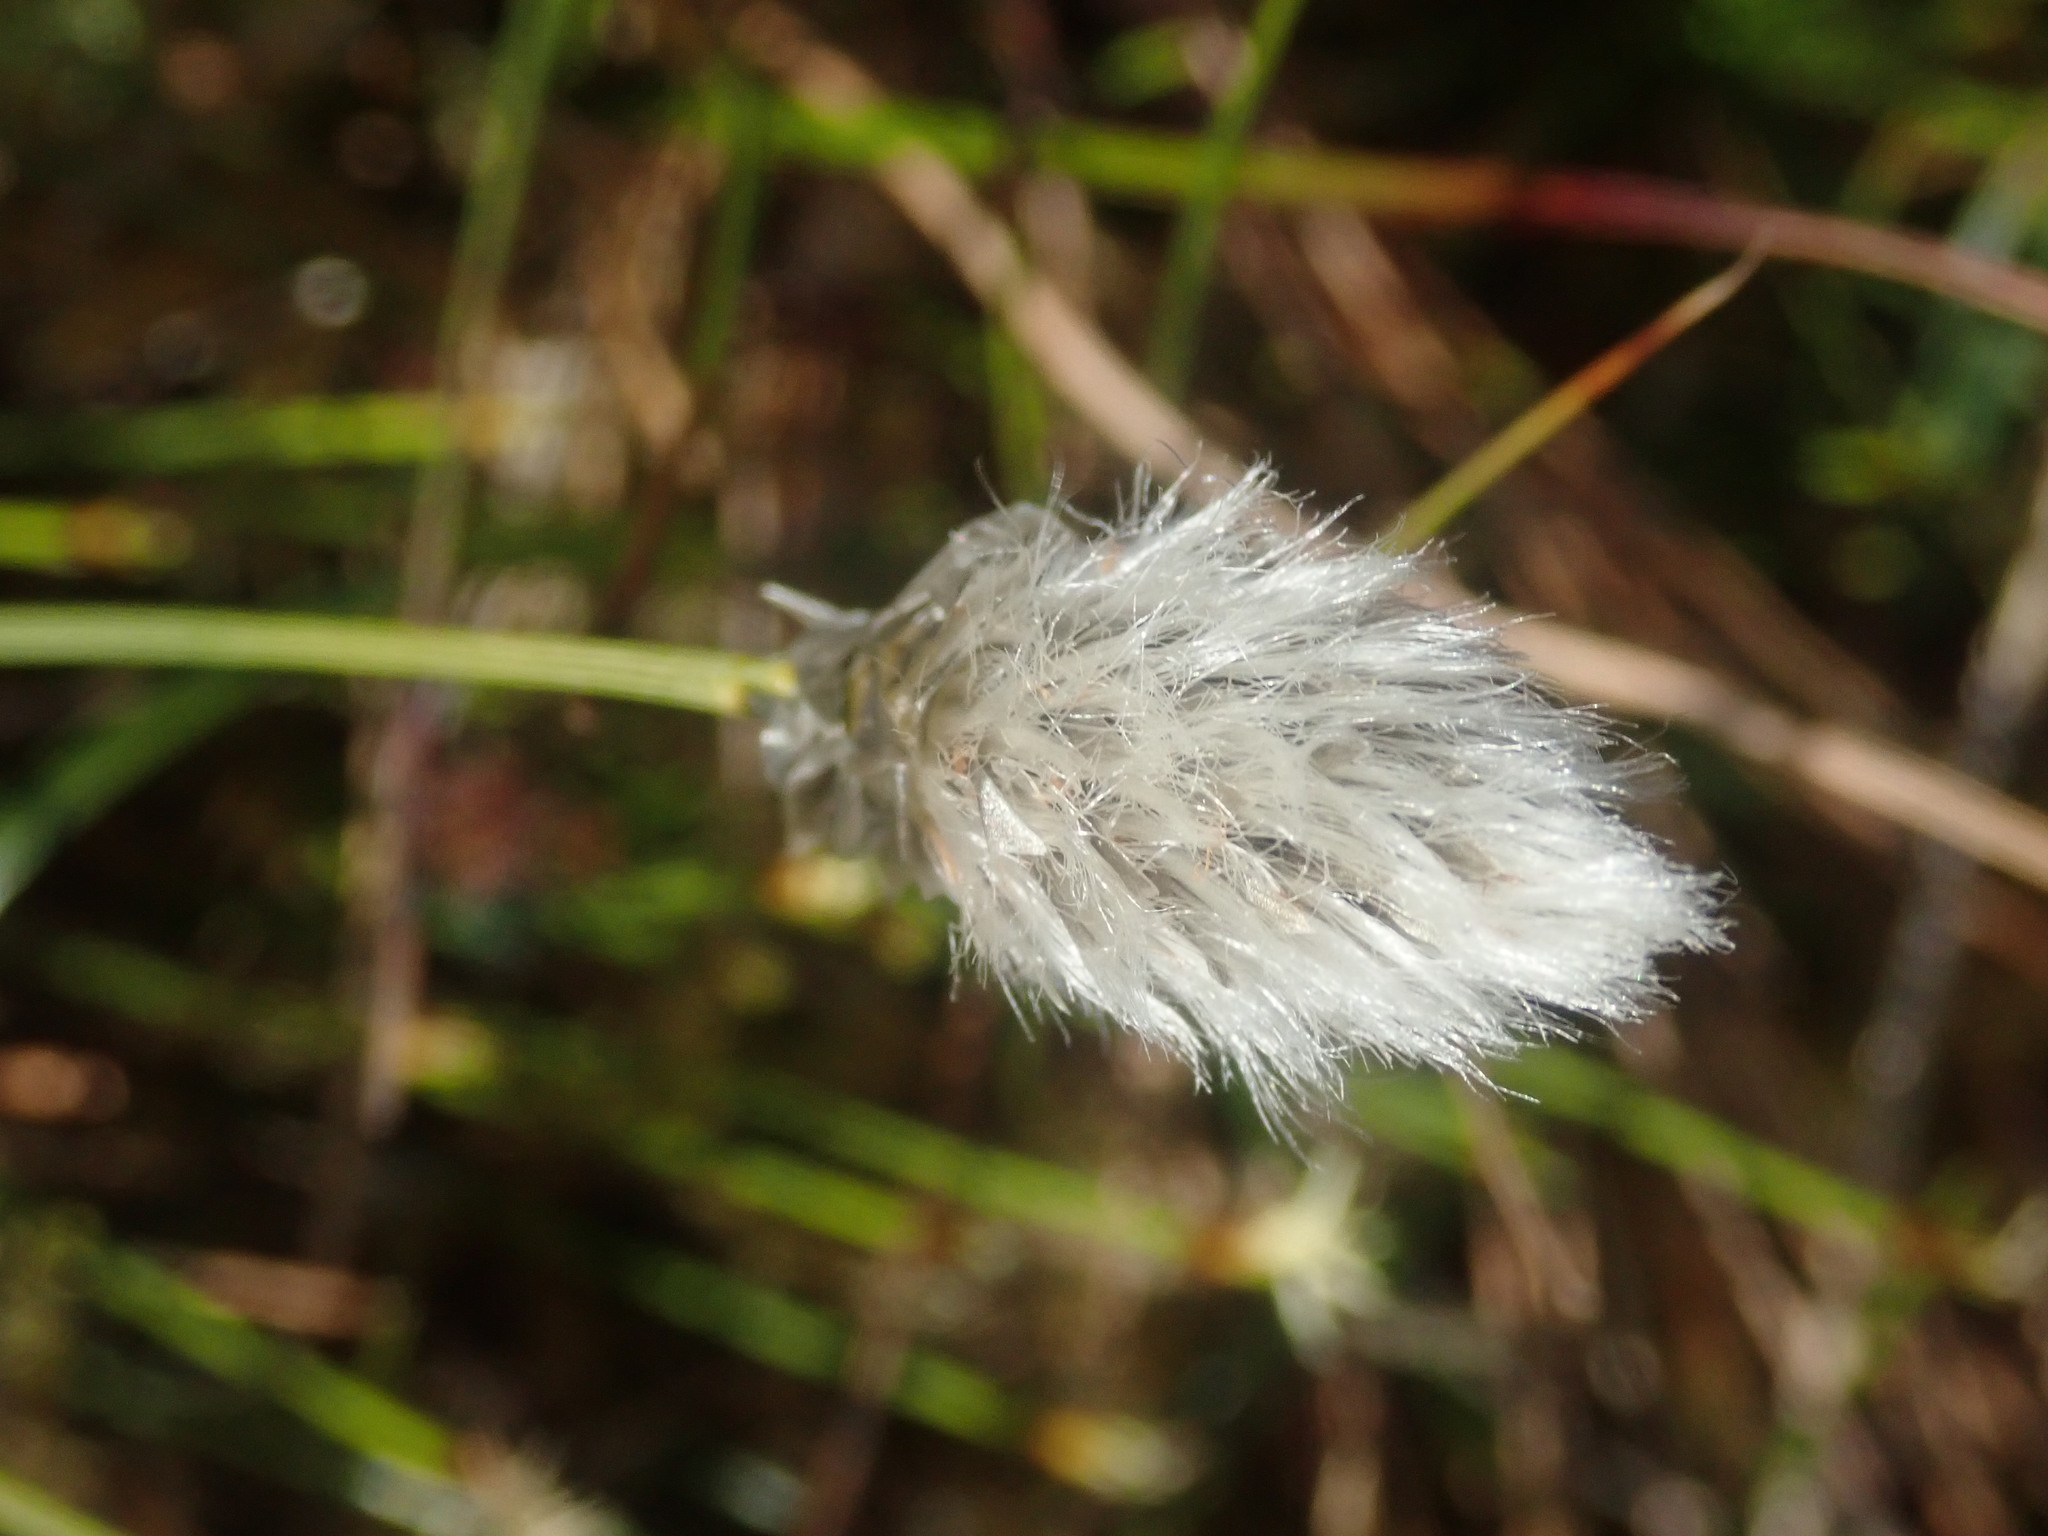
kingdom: Plantae
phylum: Tracheophyta
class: Liliopsida
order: Poales
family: Cyperaceae
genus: Eriophorum
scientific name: Eriophorum vaginatum
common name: Hare's-tail cottongrass
